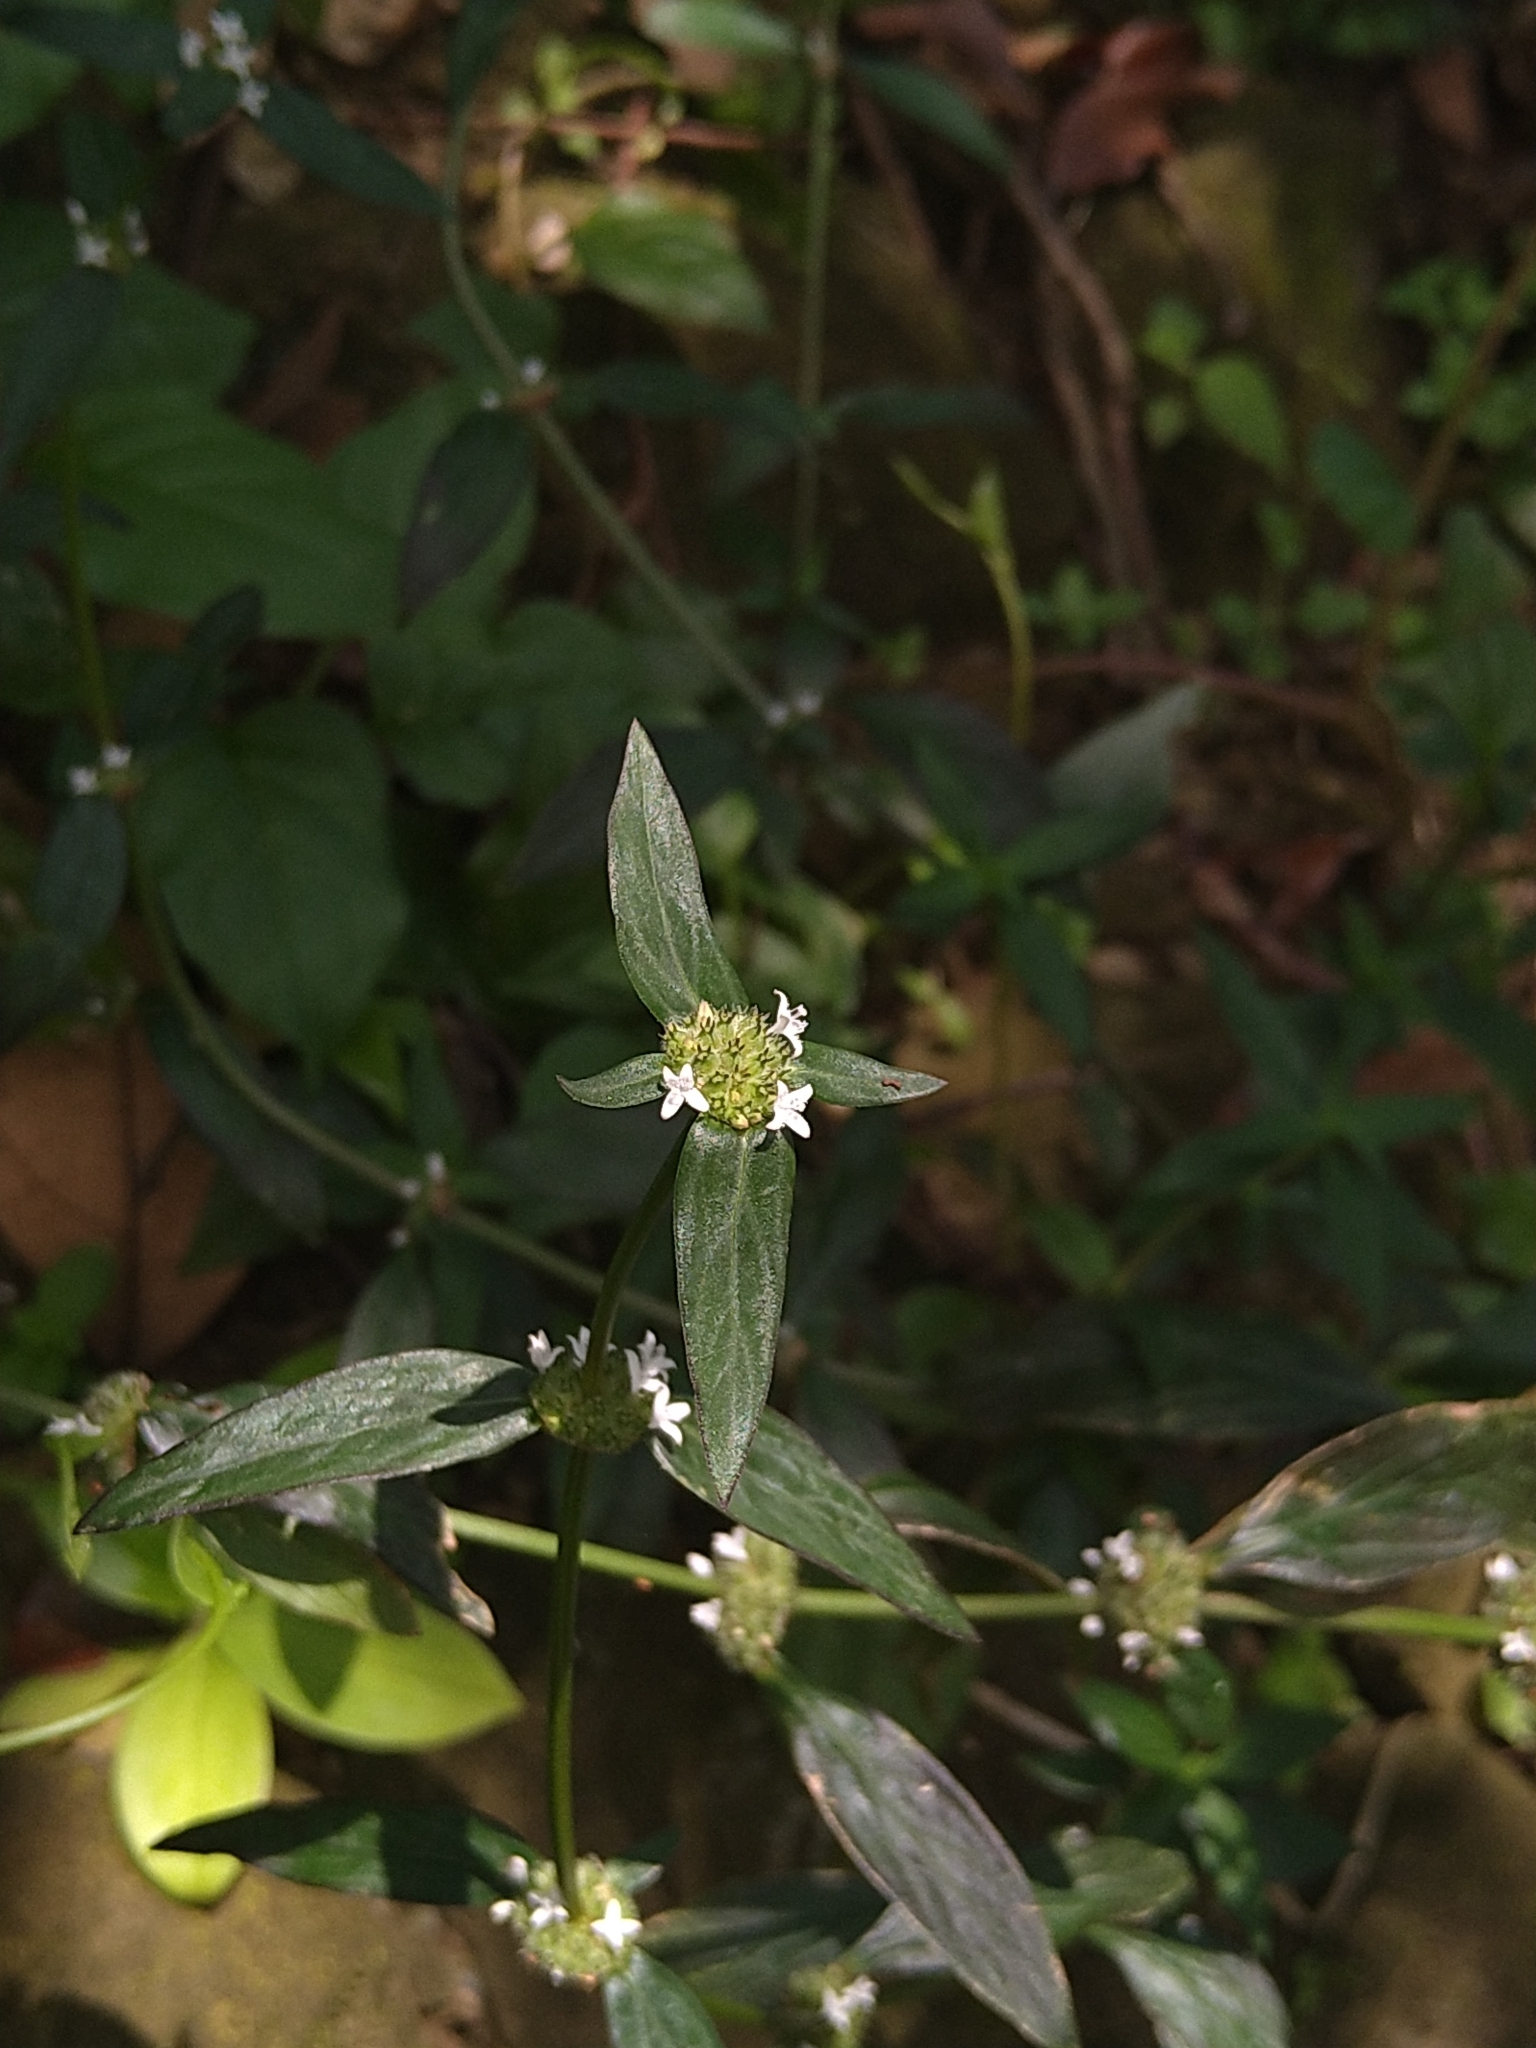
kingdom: Plantae
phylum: Tracheophyta
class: Magnoliopsida
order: Gentianales
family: Rubiaceae
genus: Spermacoce
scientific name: Spermacoce remota
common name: Woodland false buttonweed
